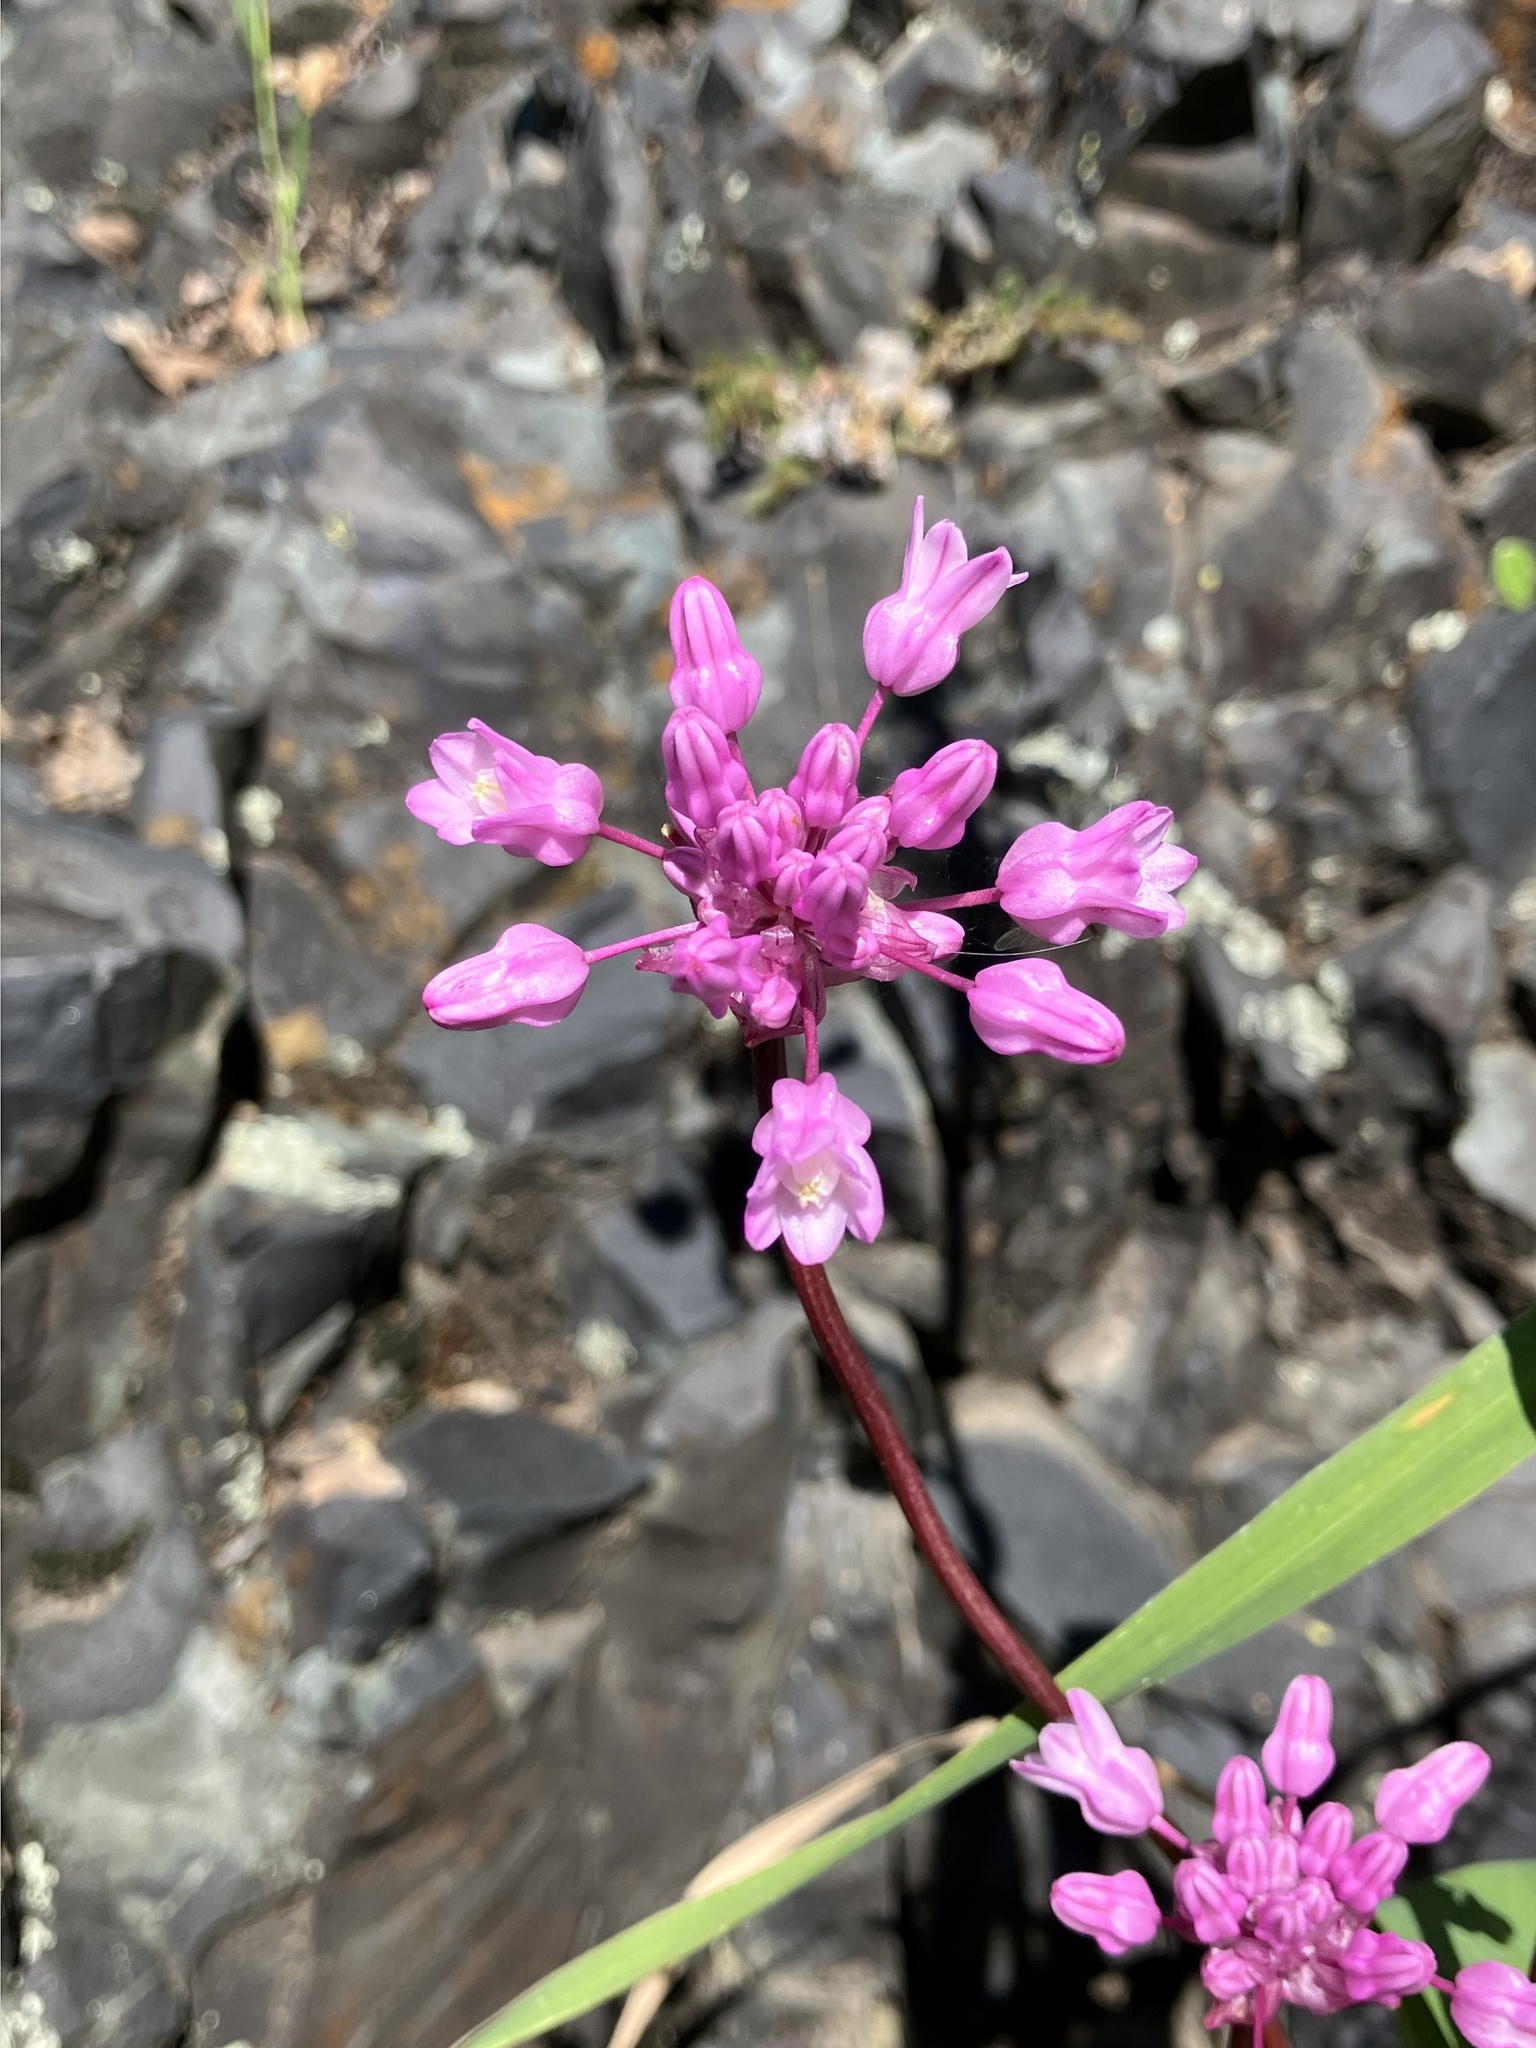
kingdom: Plantae
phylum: Tracheophyta
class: Liliopsida
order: Asparagales
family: Asparagaceae
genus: Dichelostemma
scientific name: Dichelostemma volubile
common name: Trining brodiaea
